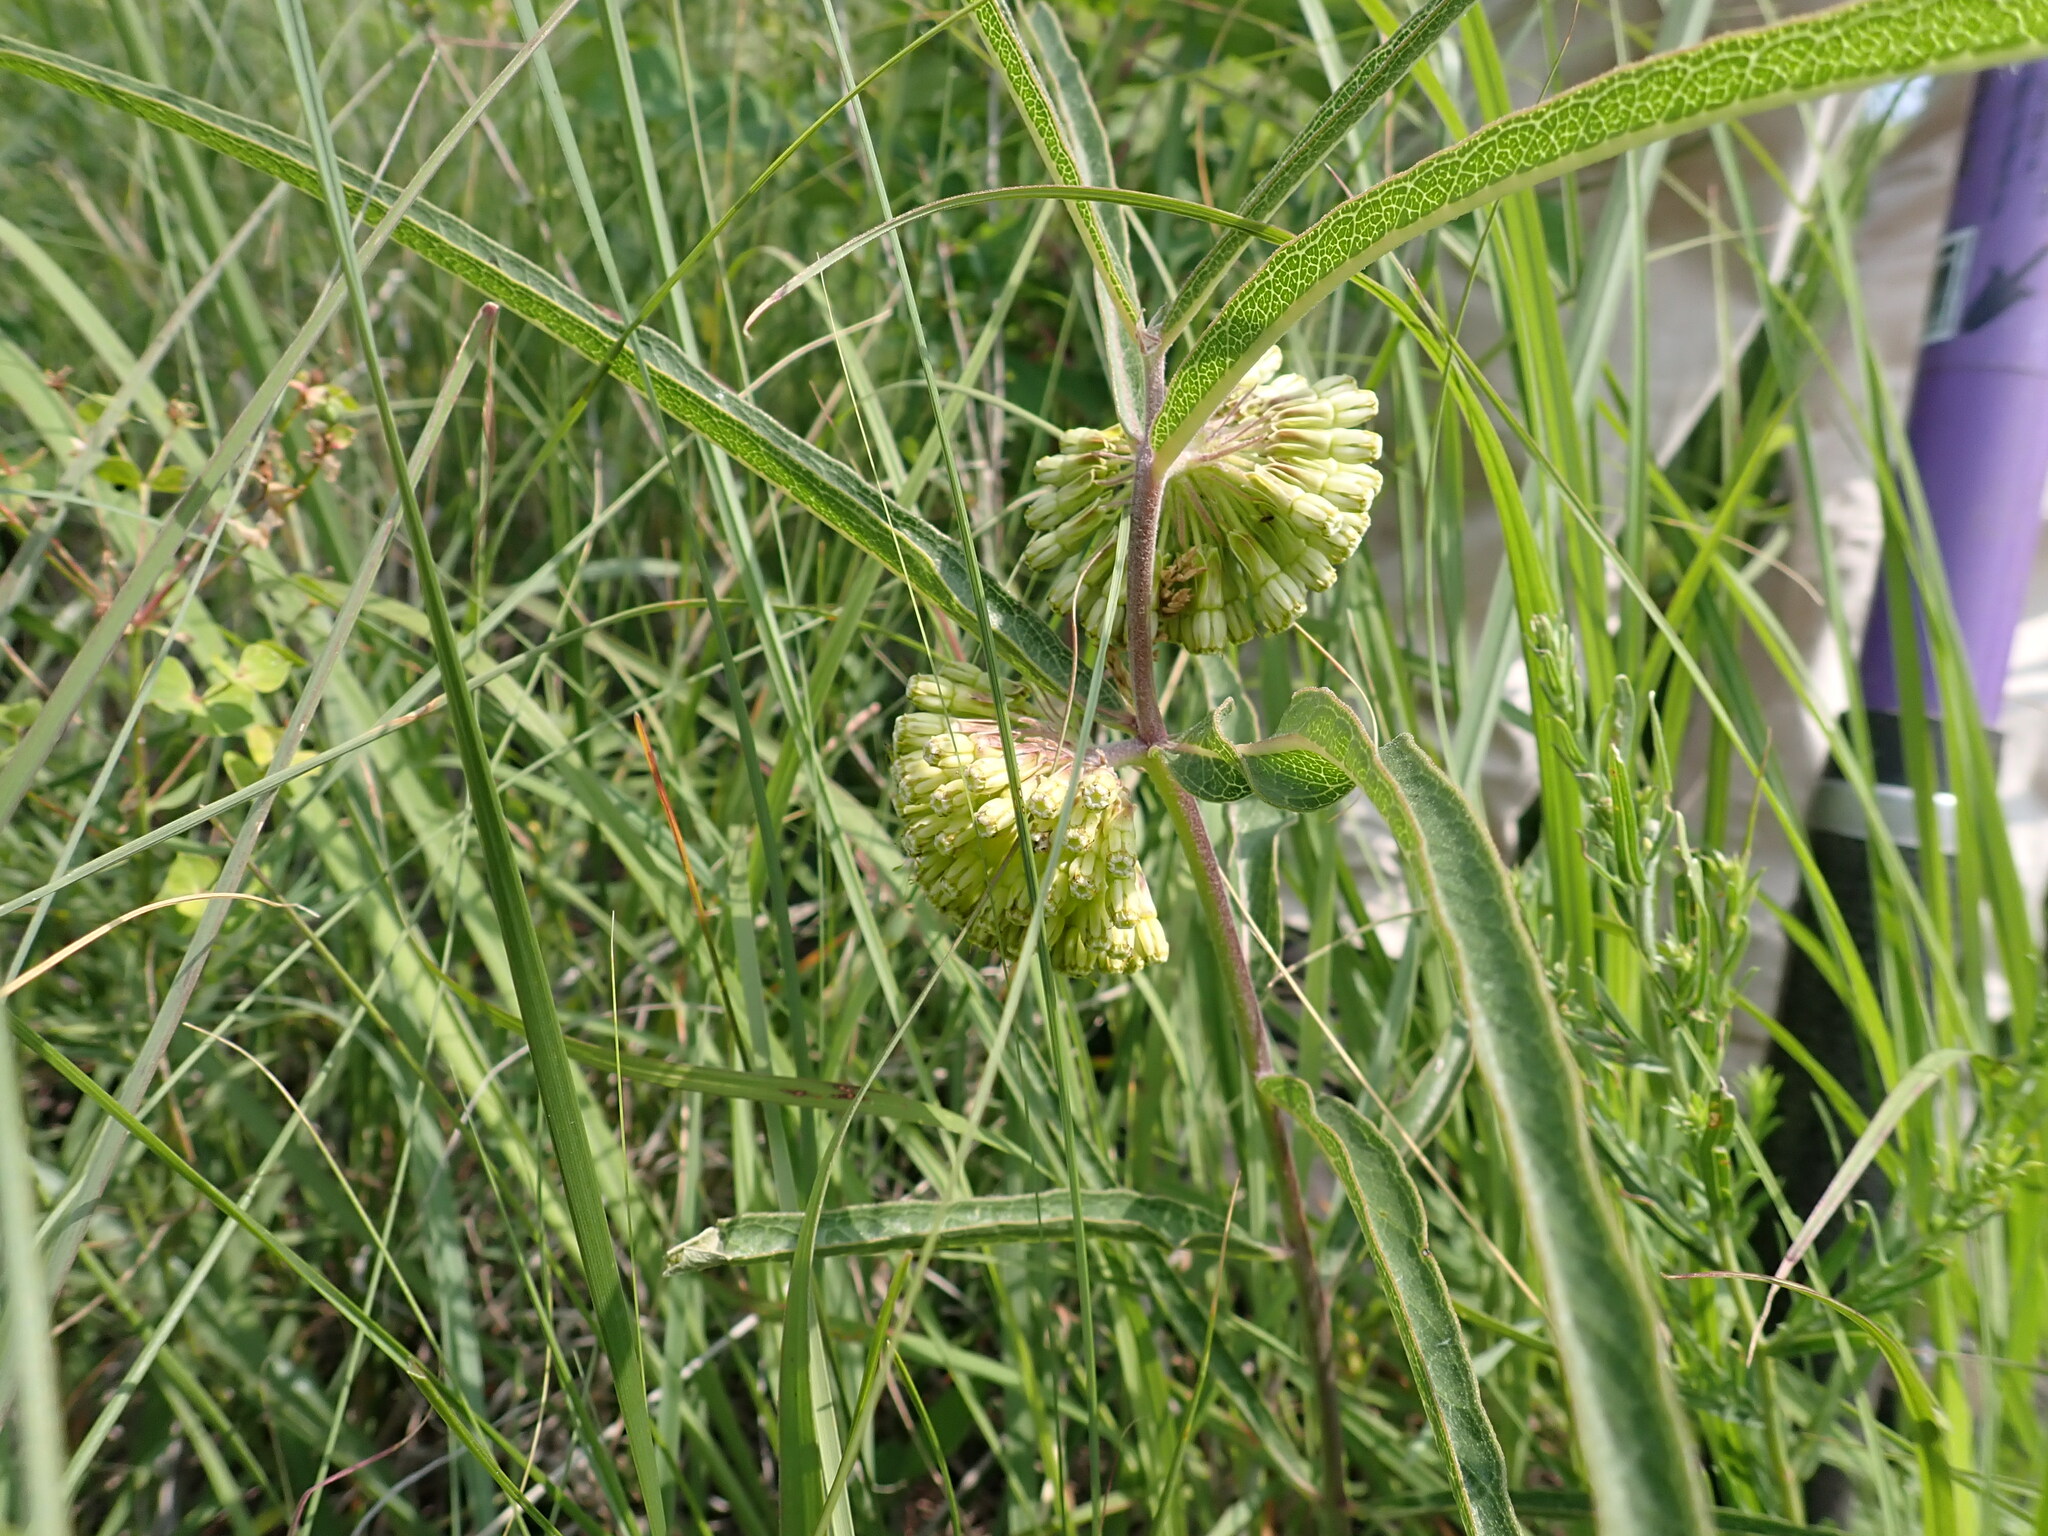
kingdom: Plantae
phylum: Tracheophyta
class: Magnoliopsida
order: Gentianales
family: Apocynaceae
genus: Asclepias
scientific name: Asclepias viridiflora
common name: Green comet milkweed
